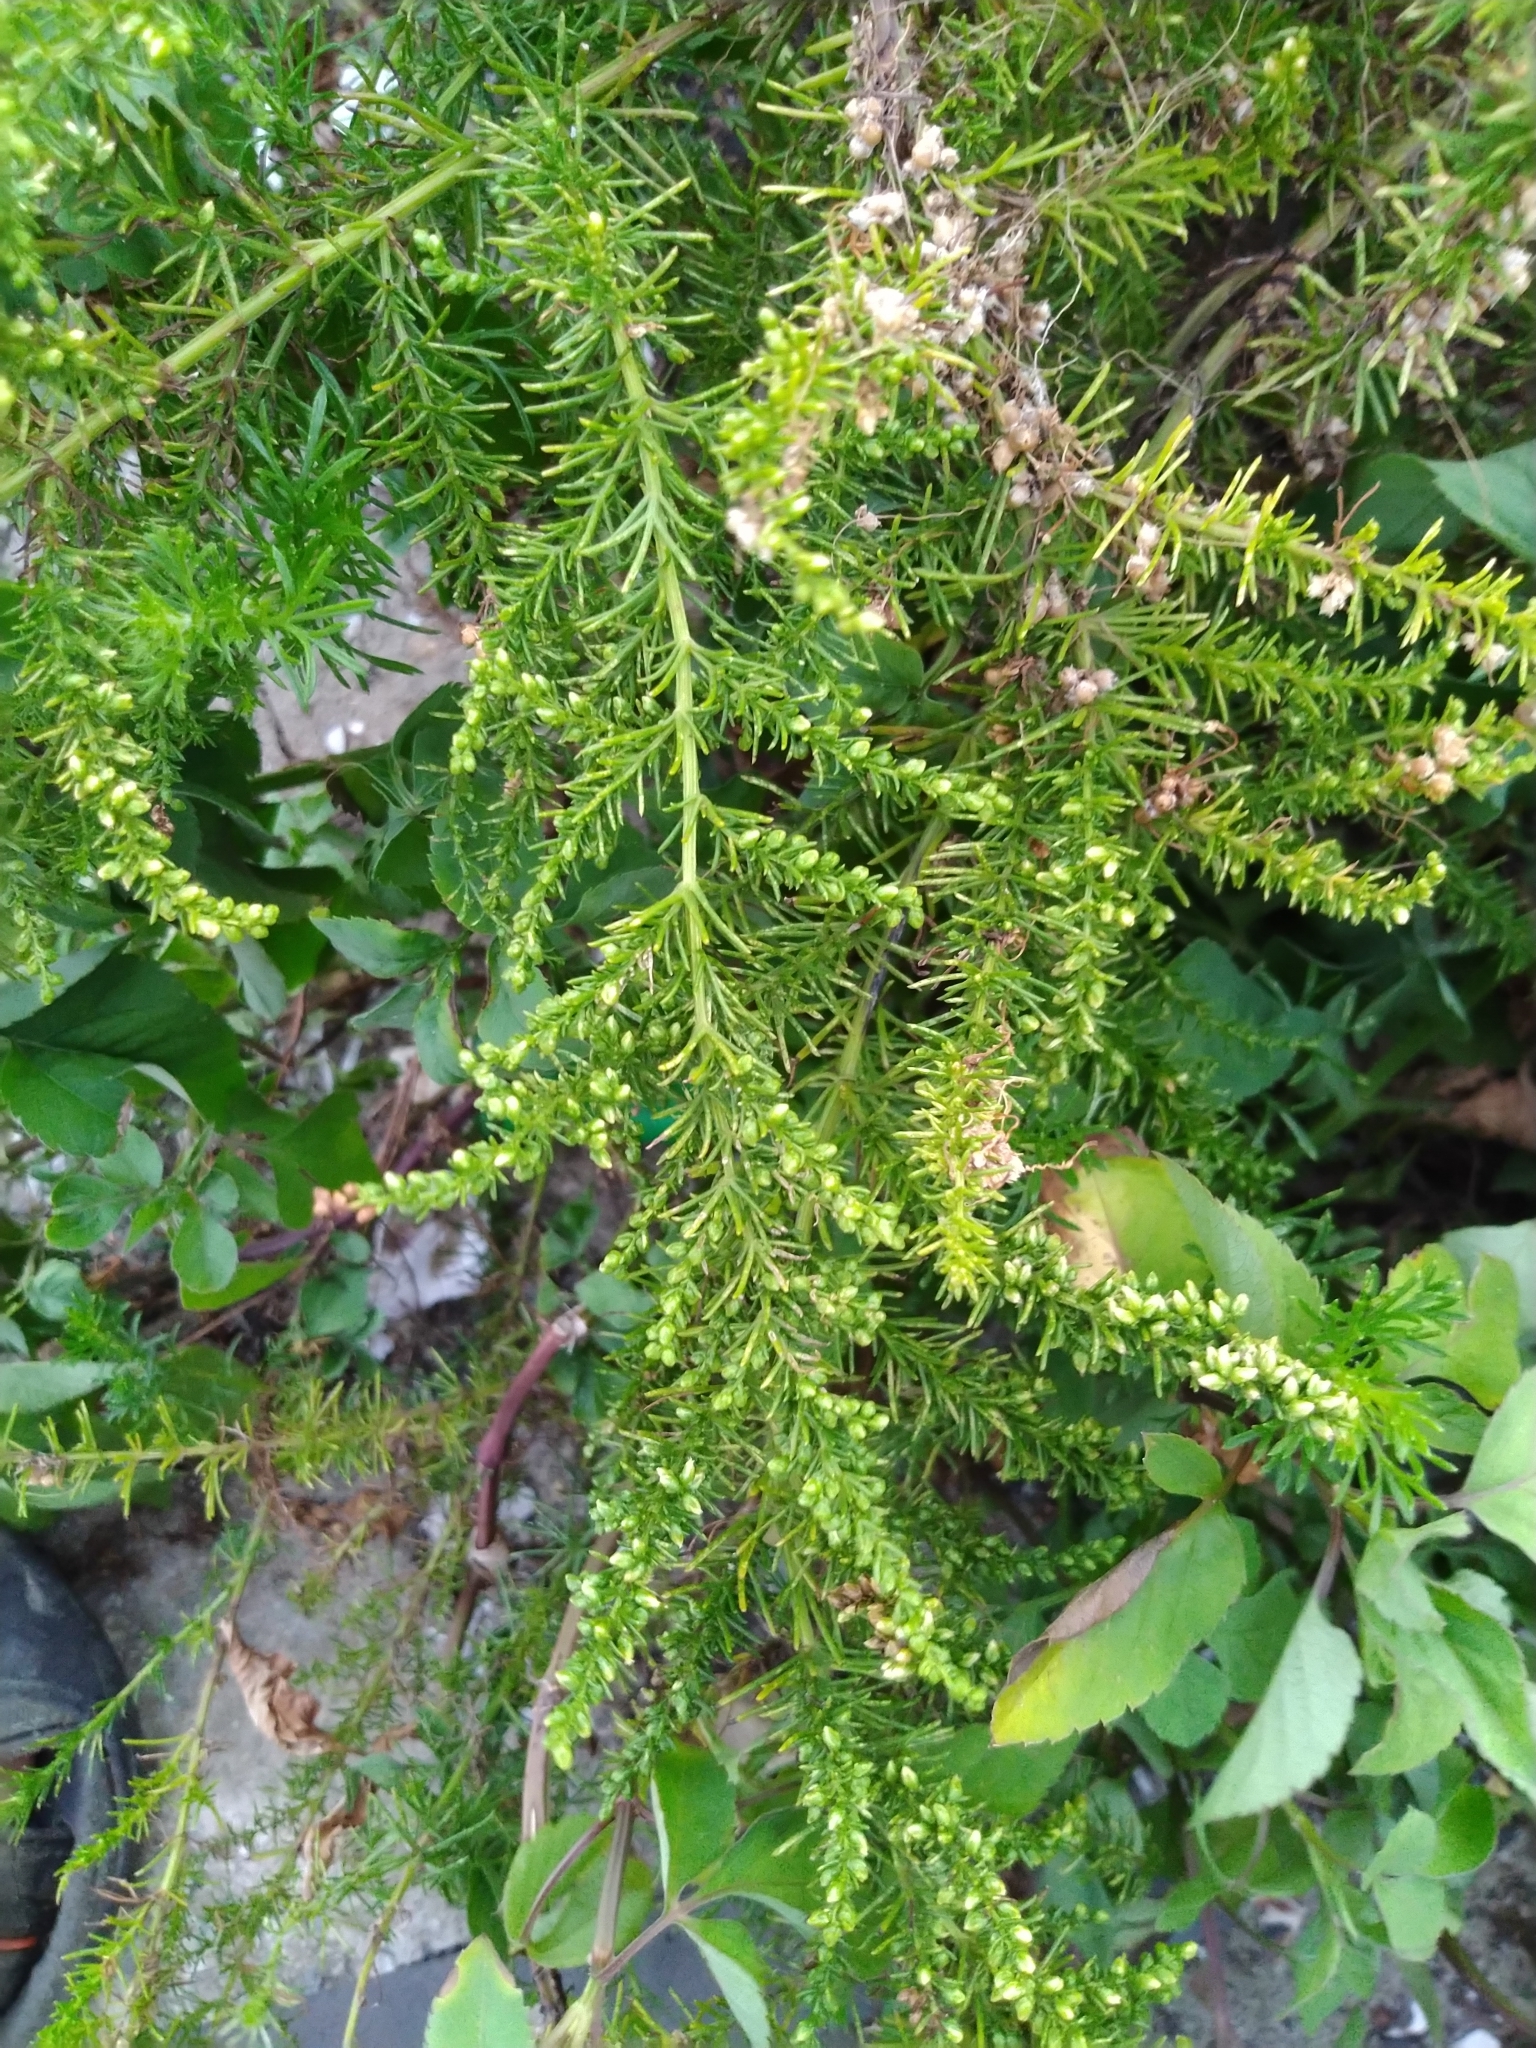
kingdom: Plantae
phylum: Tracheophyta
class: Magnoliopsida
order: Asterales
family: Asteraceae
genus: Artemisia
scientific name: Artemisia capillaris
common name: Yin-chen wormwood
